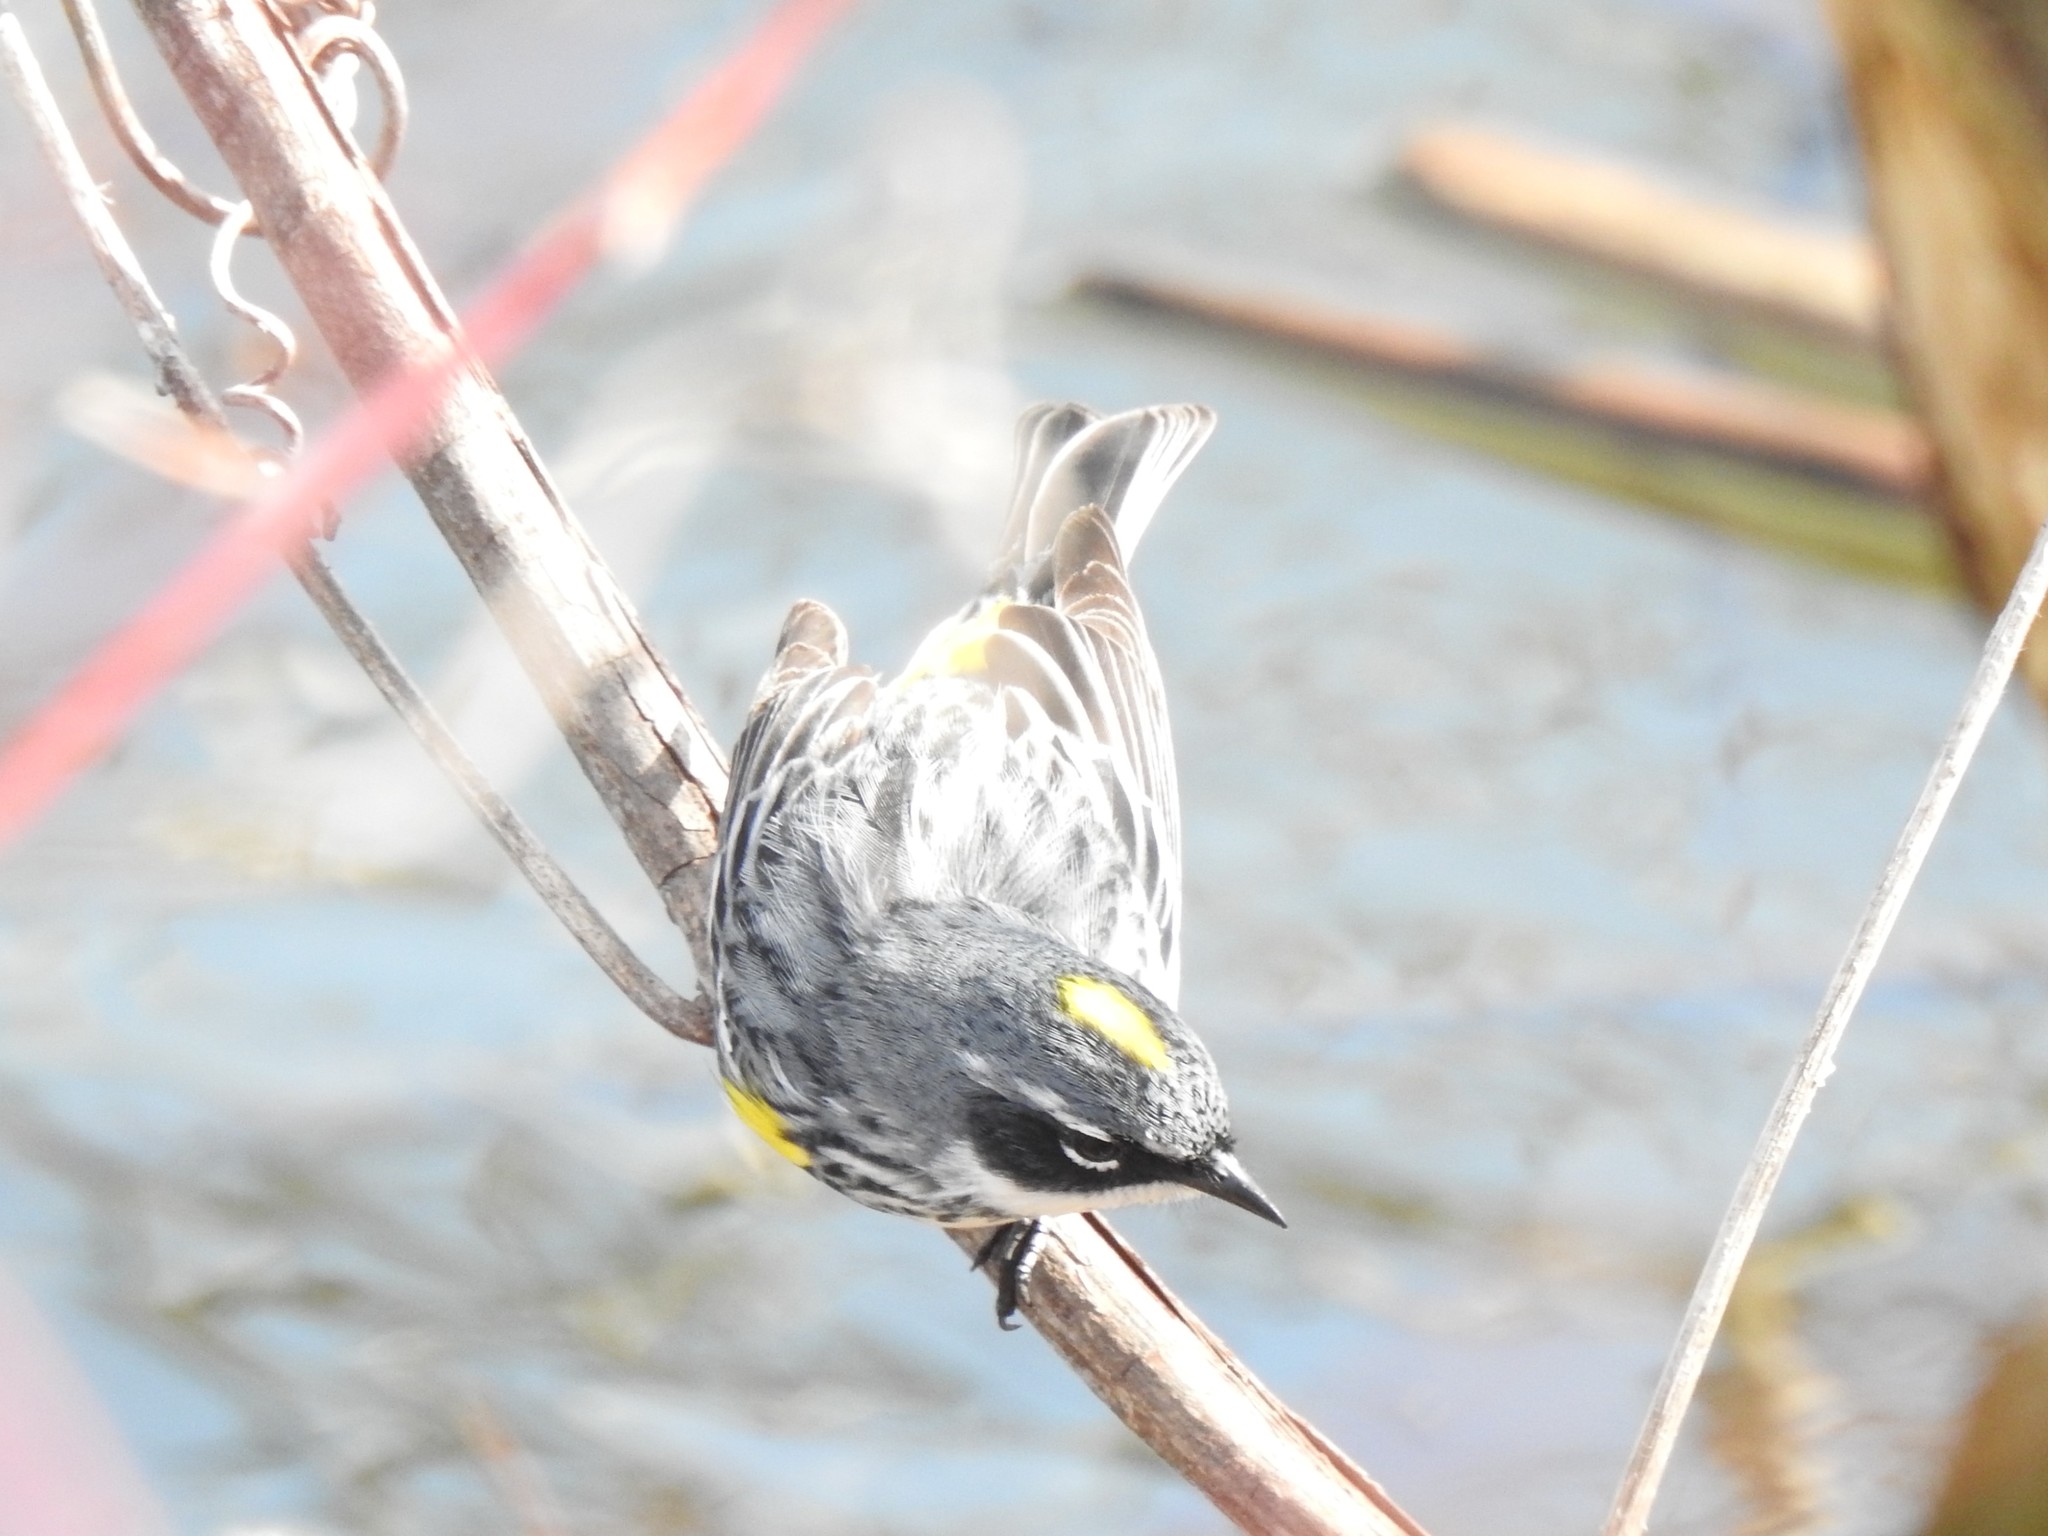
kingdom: Animalia
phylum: Chordata
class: Aves
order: Passeriformes
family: Parulidae
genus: Setophaga
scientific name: Setophaga coronata
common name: Myrtle warbler
